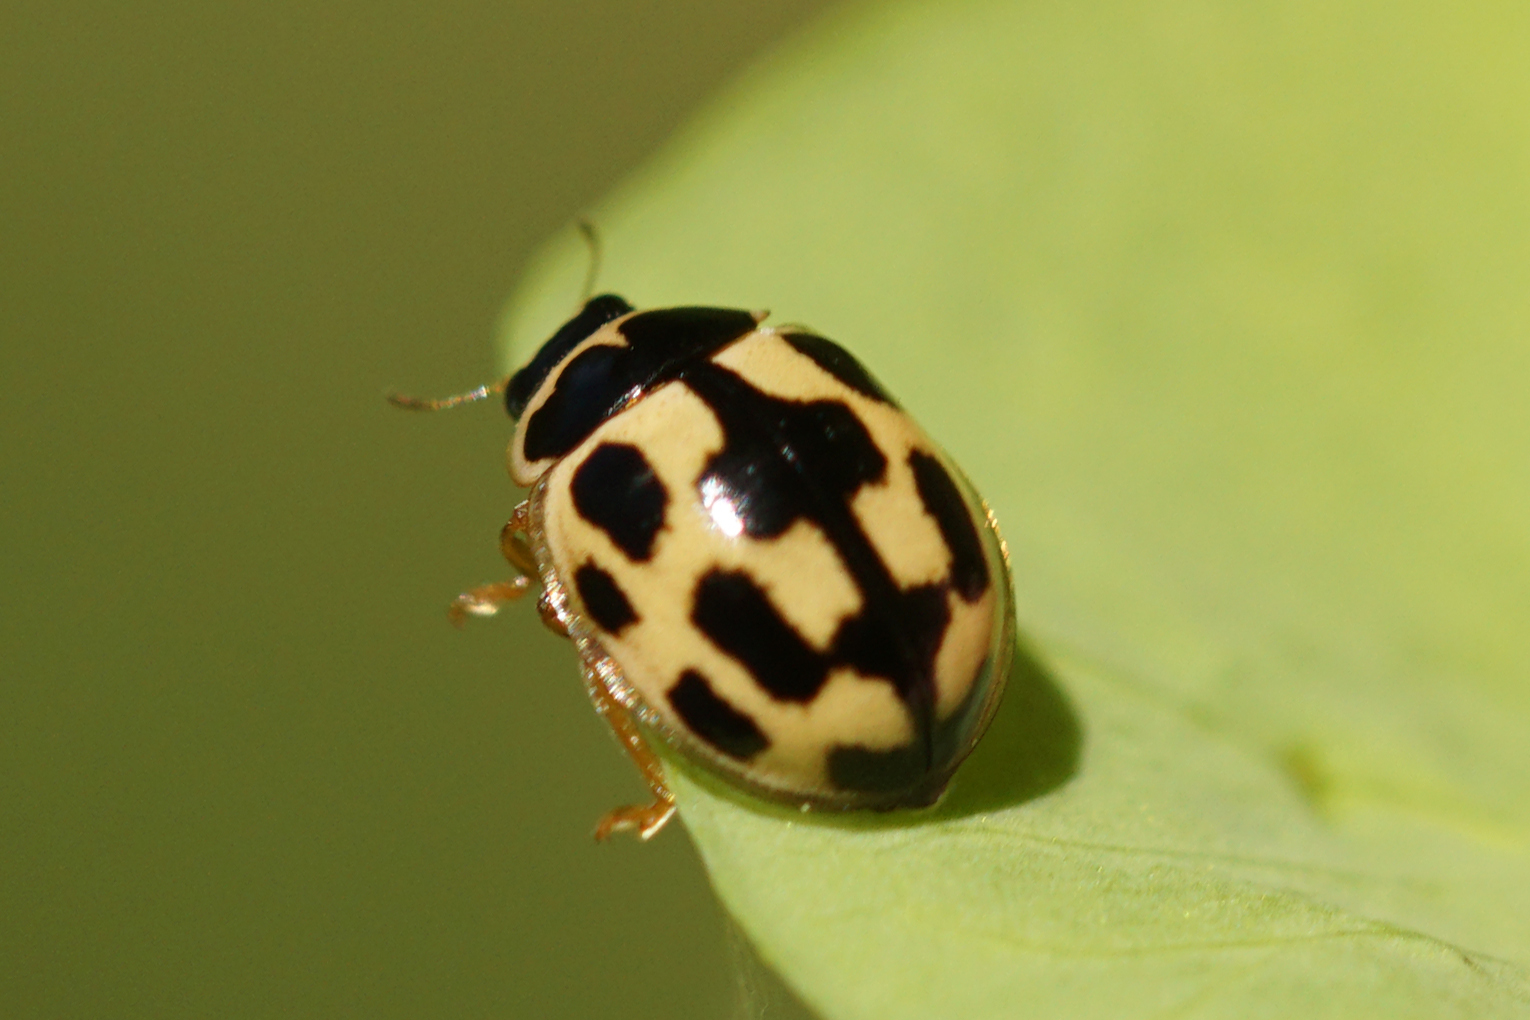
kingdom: Animalia
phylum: Arthropoda
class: Insecta
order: Coleoptera
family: Coccinellidae
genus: Propylaea
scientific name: Propylaea quatuordecimpunctata
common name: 14-spotted ladybird beetle
